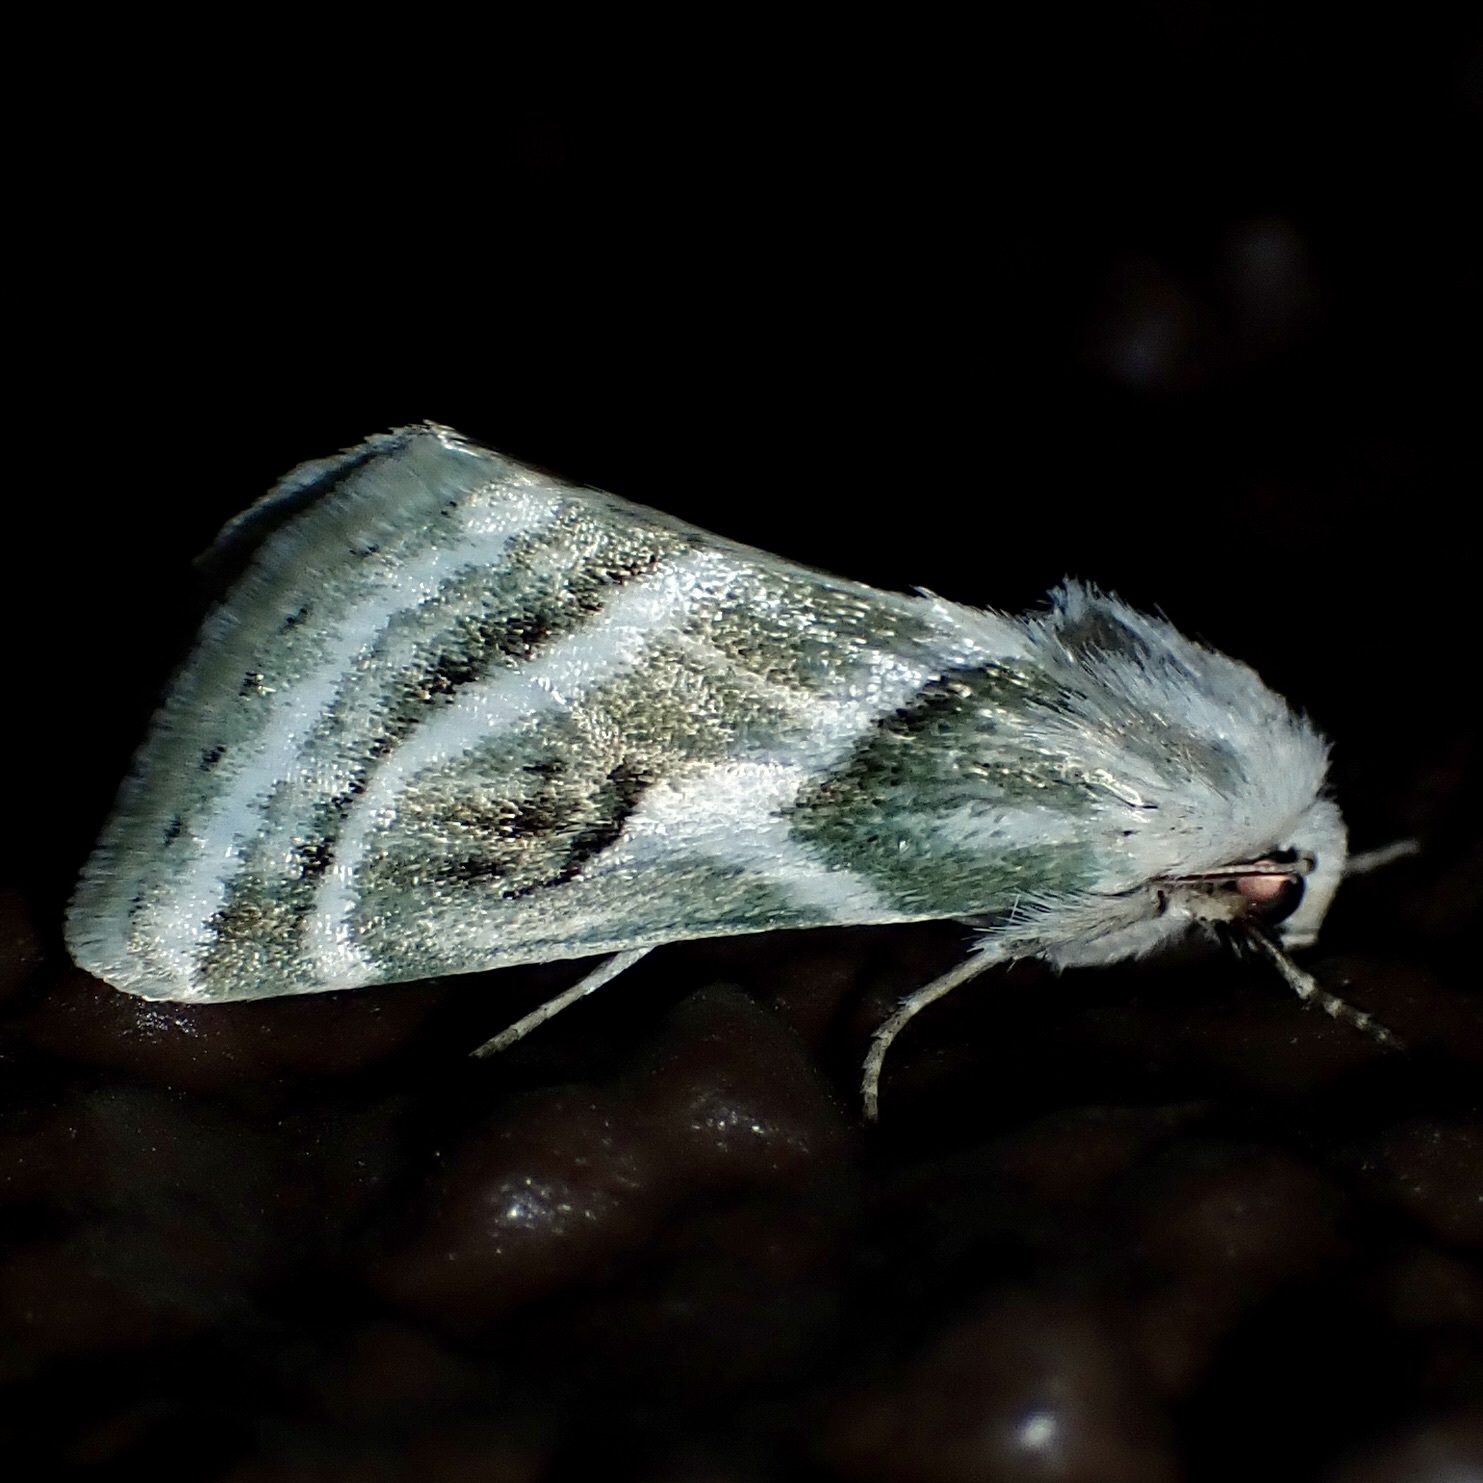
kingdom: Animalia
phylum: Arthropoda
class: Insecta
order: Lepidoptera
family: Noctuidae
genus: Schinia
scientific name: Schinia accessa
